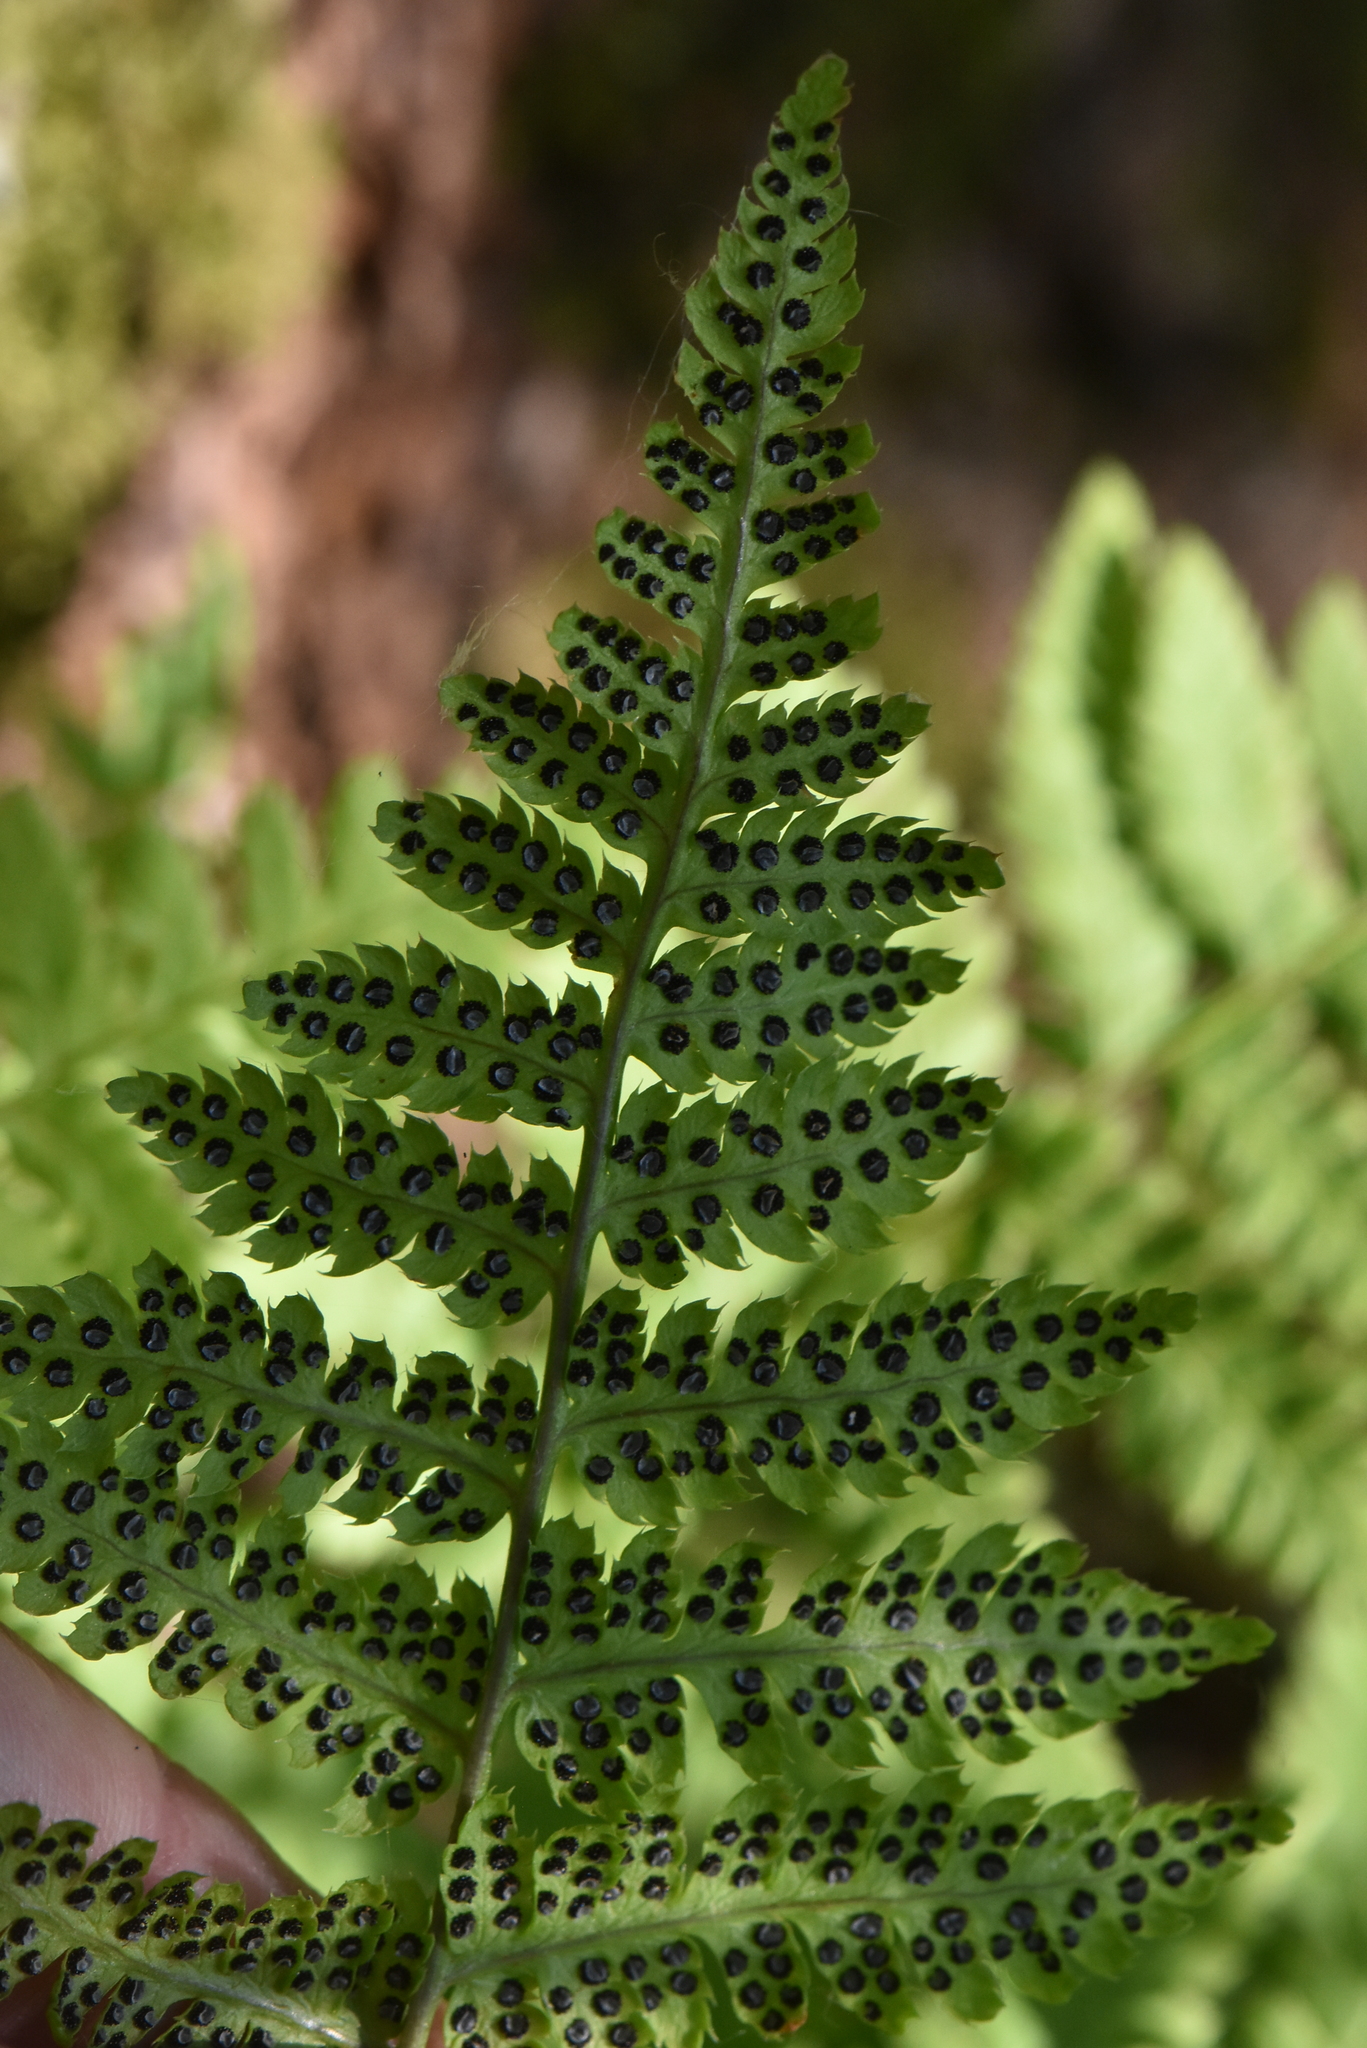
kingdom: Plantae
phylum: Tracheophyta
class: Polypodiopsida
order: Polypodiales
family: Dryopteridaceae
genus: Dryopteris
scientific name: Dryopteris carthusiana
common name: Narrow buckler-fern
